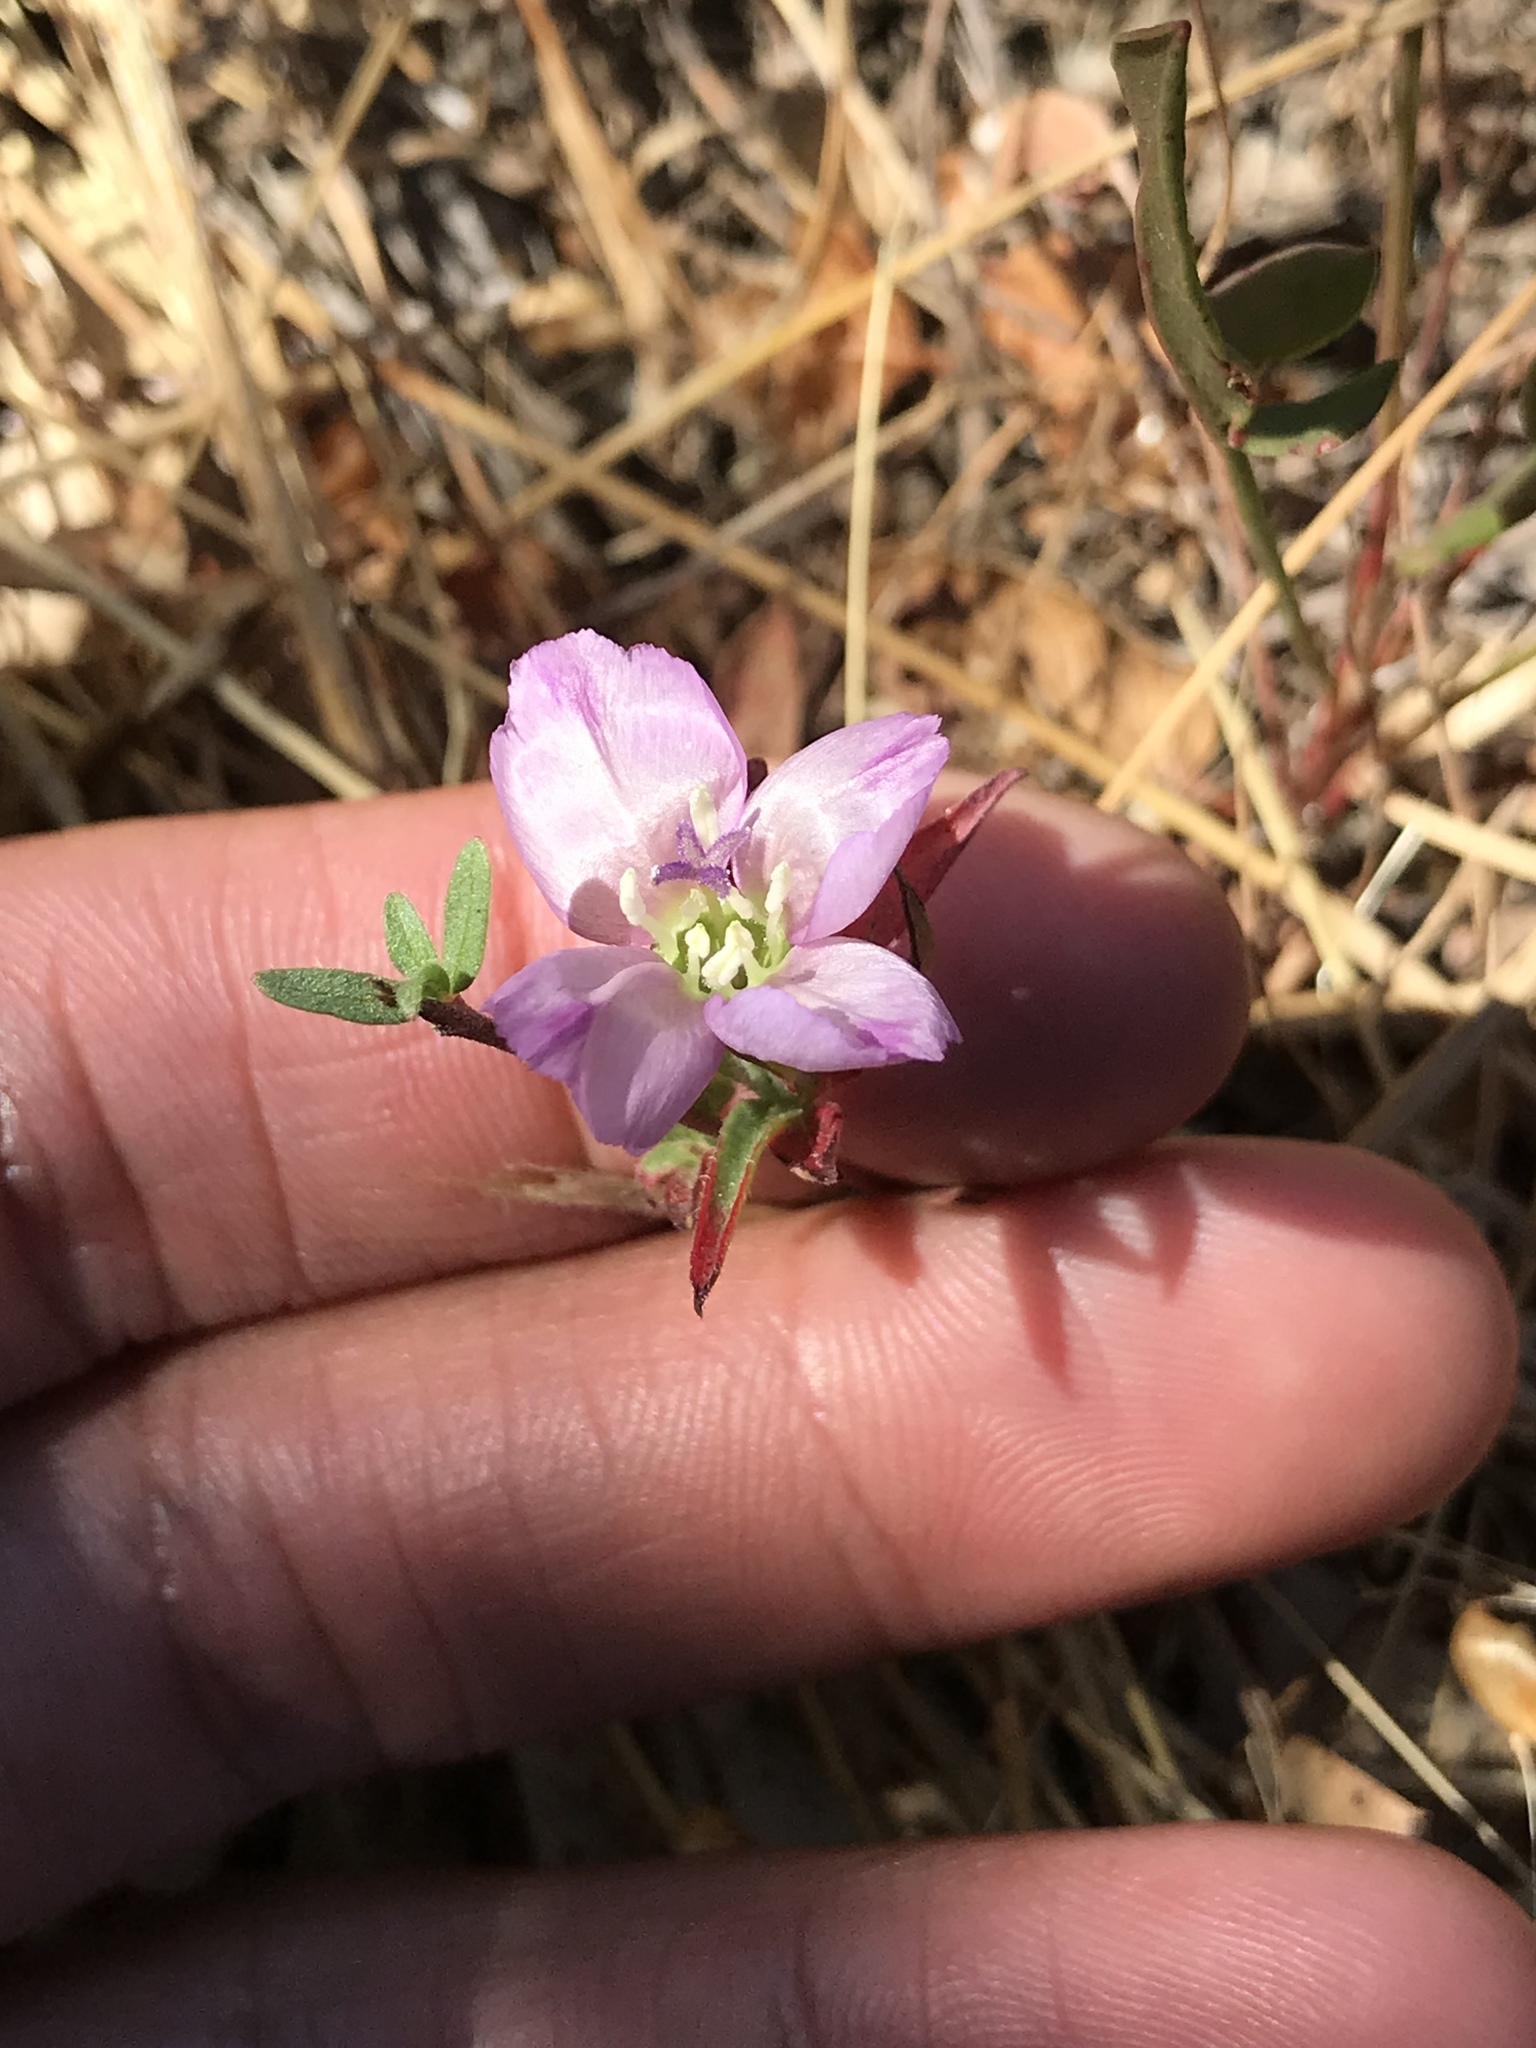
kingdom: Plantae
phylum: Tracheophyta
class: Magnoliopsida
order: Myrtales
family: Onagraceae
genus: Clarkia
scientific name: Clarkia purpurea
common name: Purple clarkia
